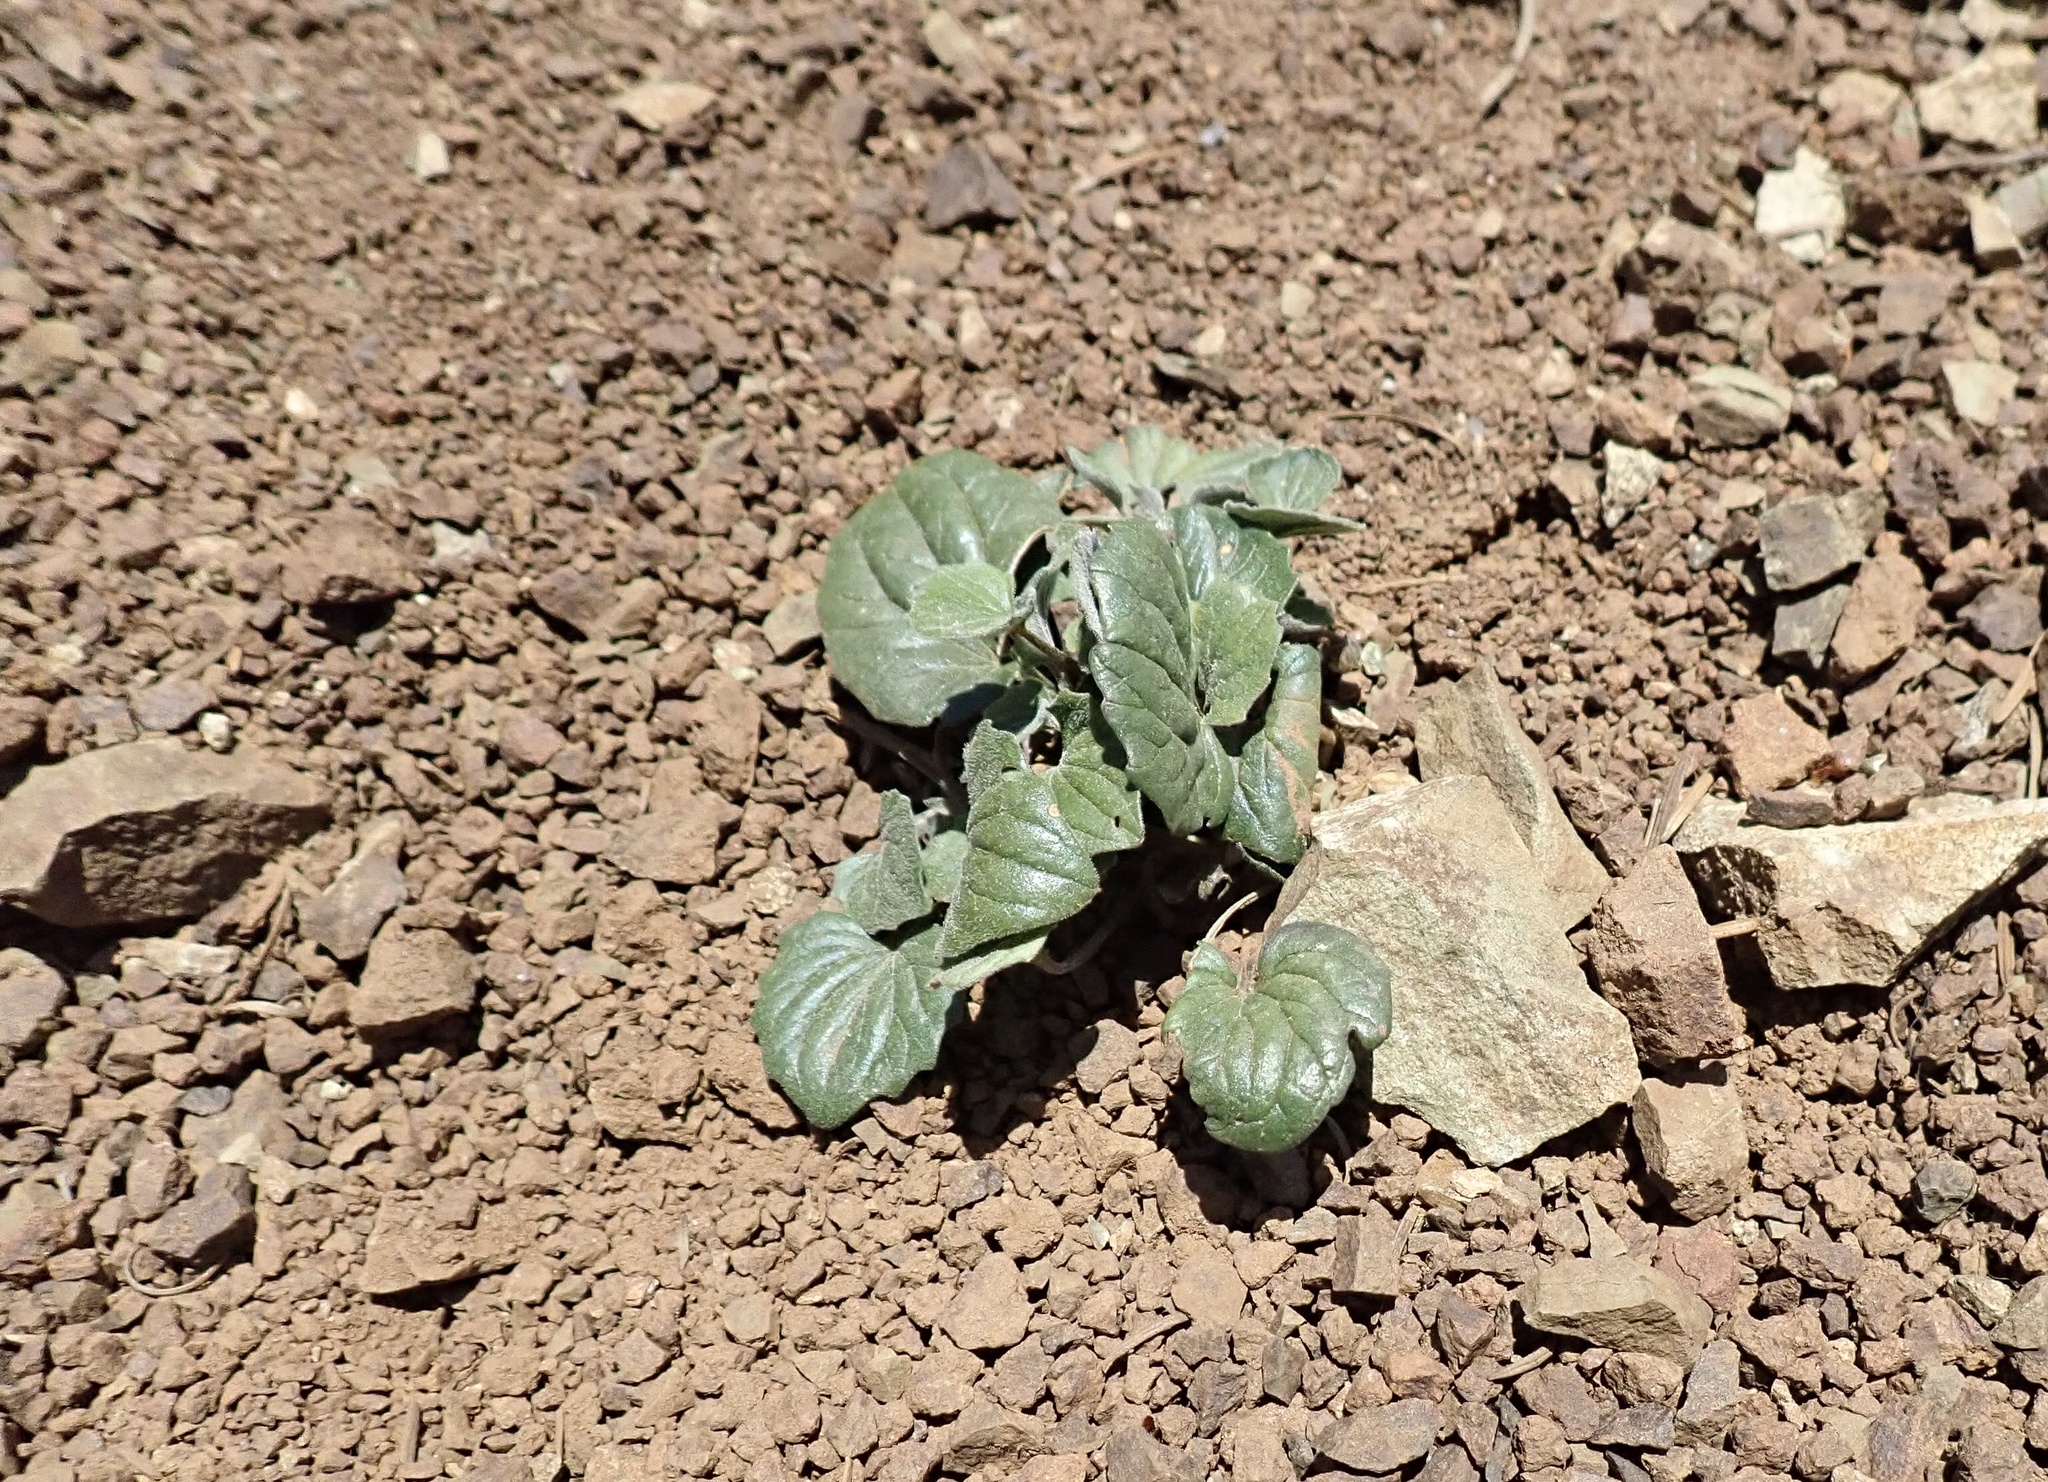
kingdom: Plantae
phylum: Tracheophyta
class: Magnoliopsida
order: Malpighiales
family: Violaceae
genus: Viola
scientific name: Viola purpurea
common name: Pine violet
